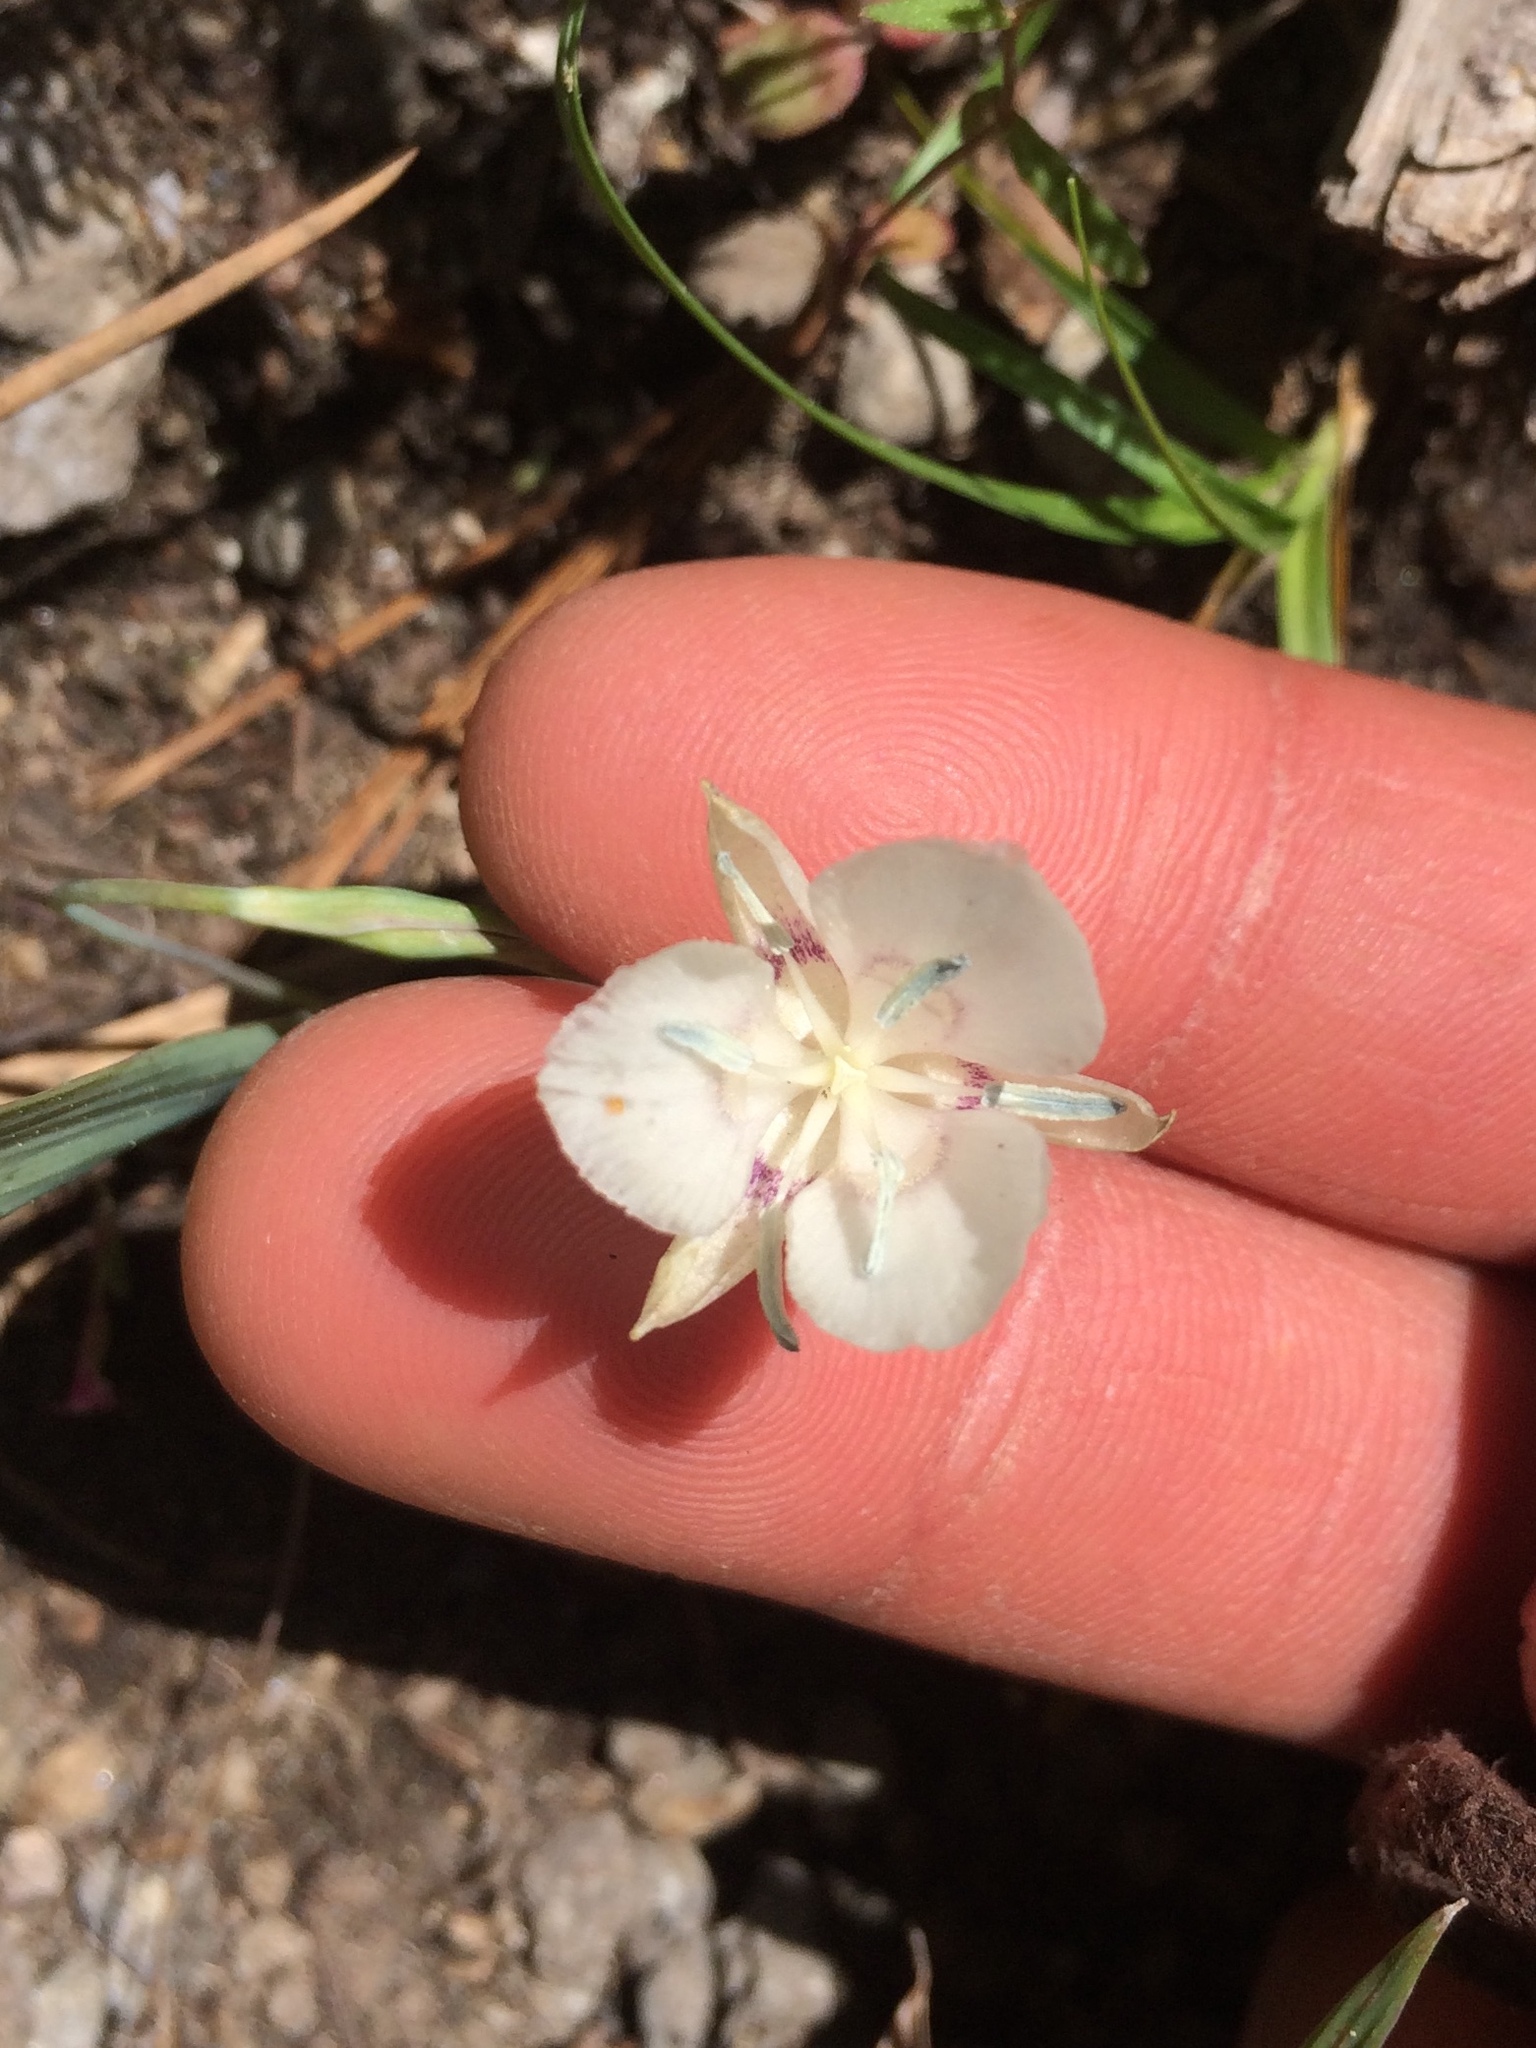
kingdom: Plantae
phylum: Tracheophyta
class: Liliopsida
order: Liliales
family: Liliaceae
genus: Calochortus
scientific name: Calochortus minimus
